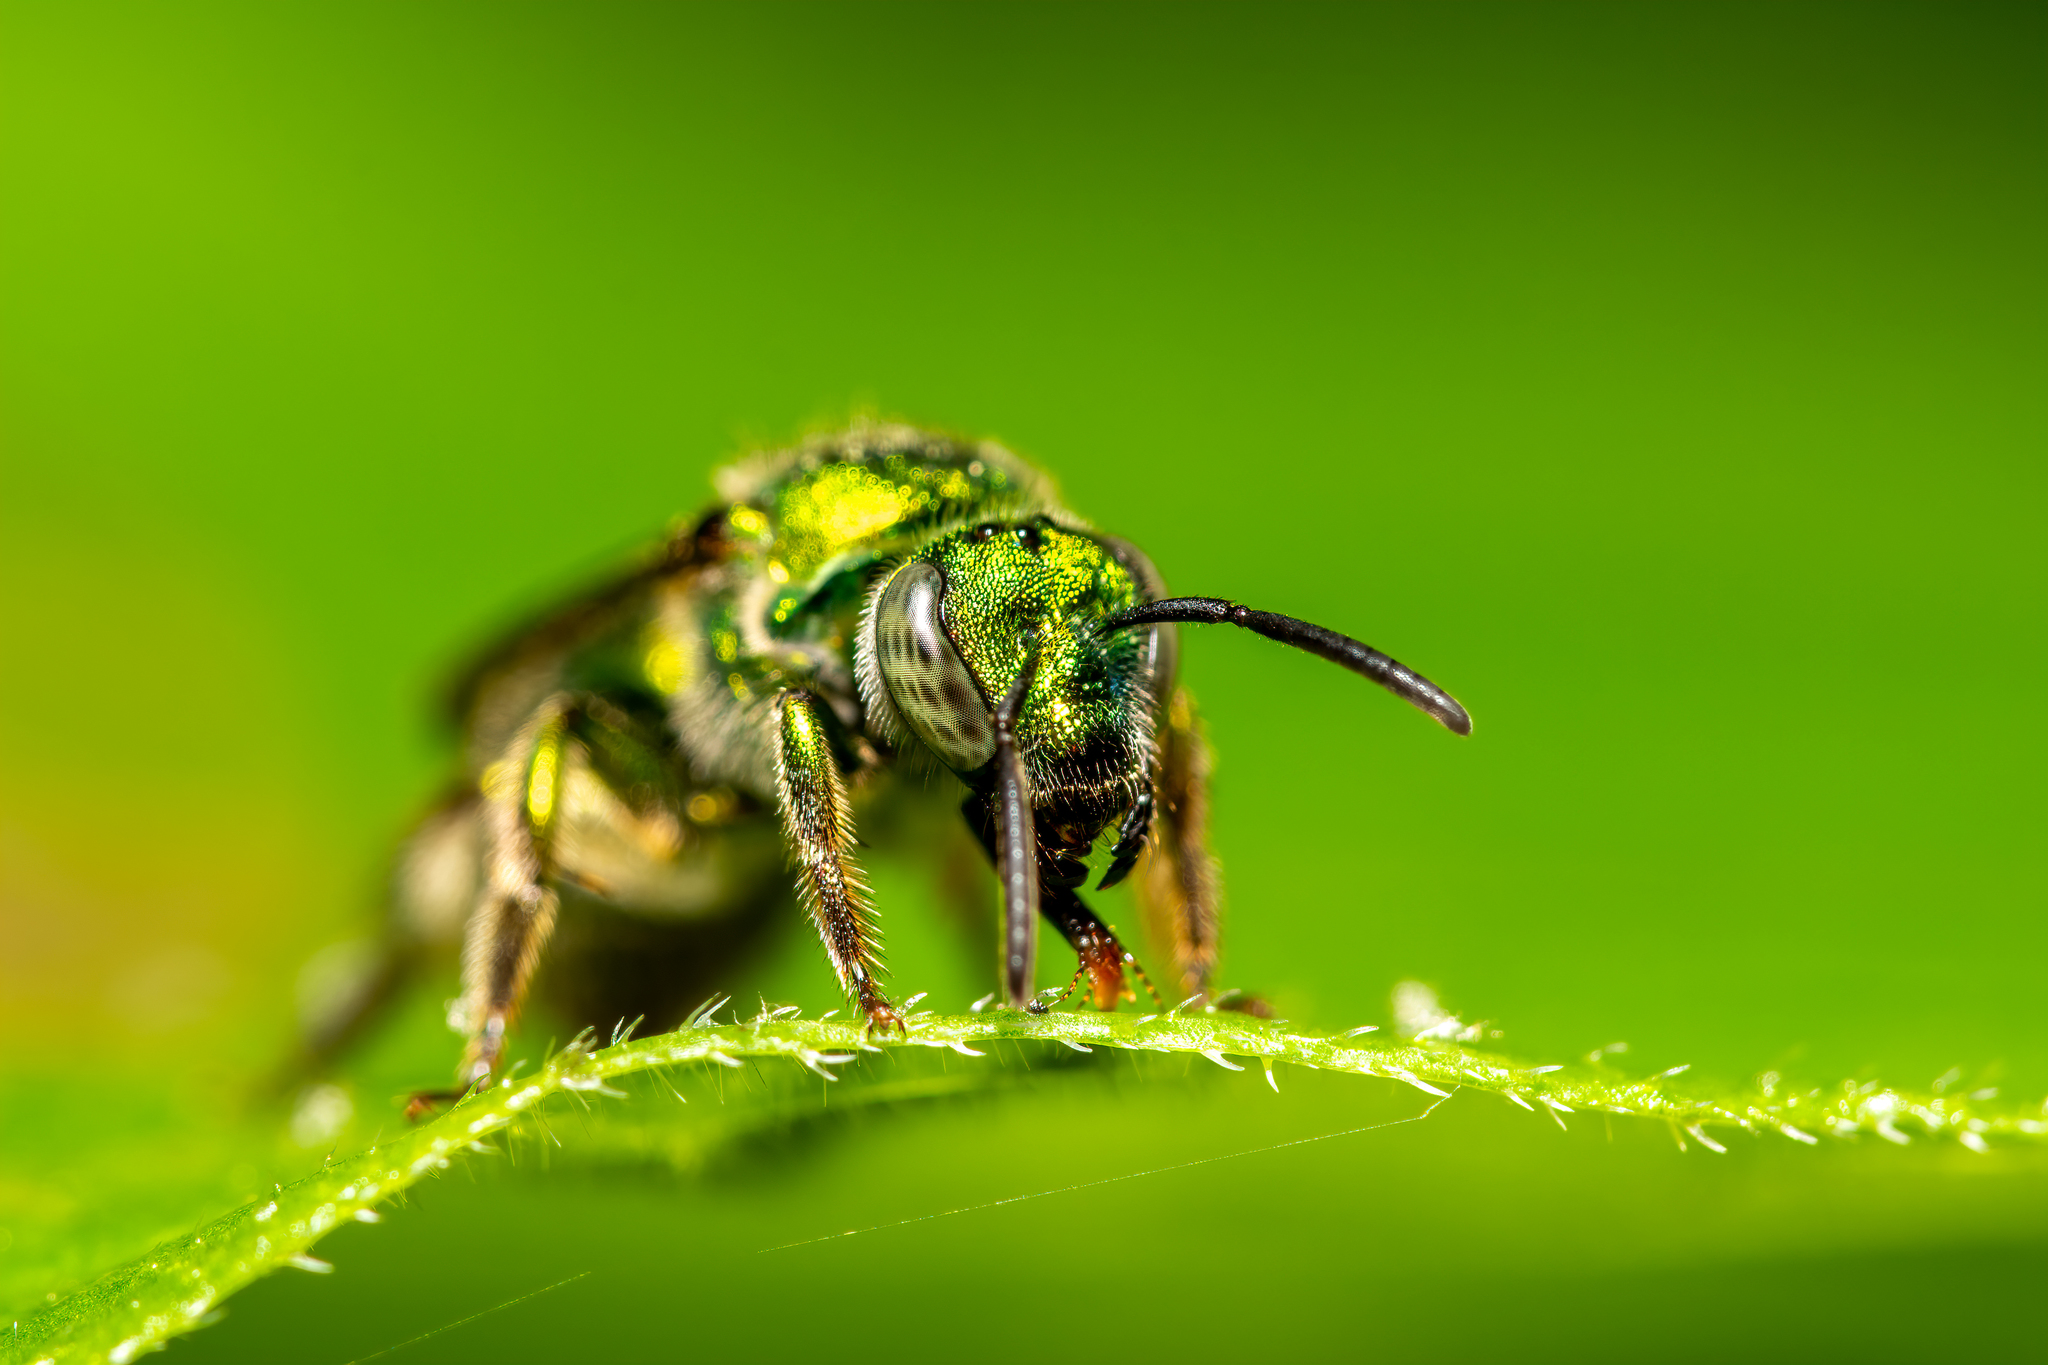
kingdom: Animalia
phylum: Arthropoda
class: Insecta
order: Hymenoptera
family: Halictidae
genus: Augochlora
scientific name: Augochlora pura
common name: Pure green sweat bee
